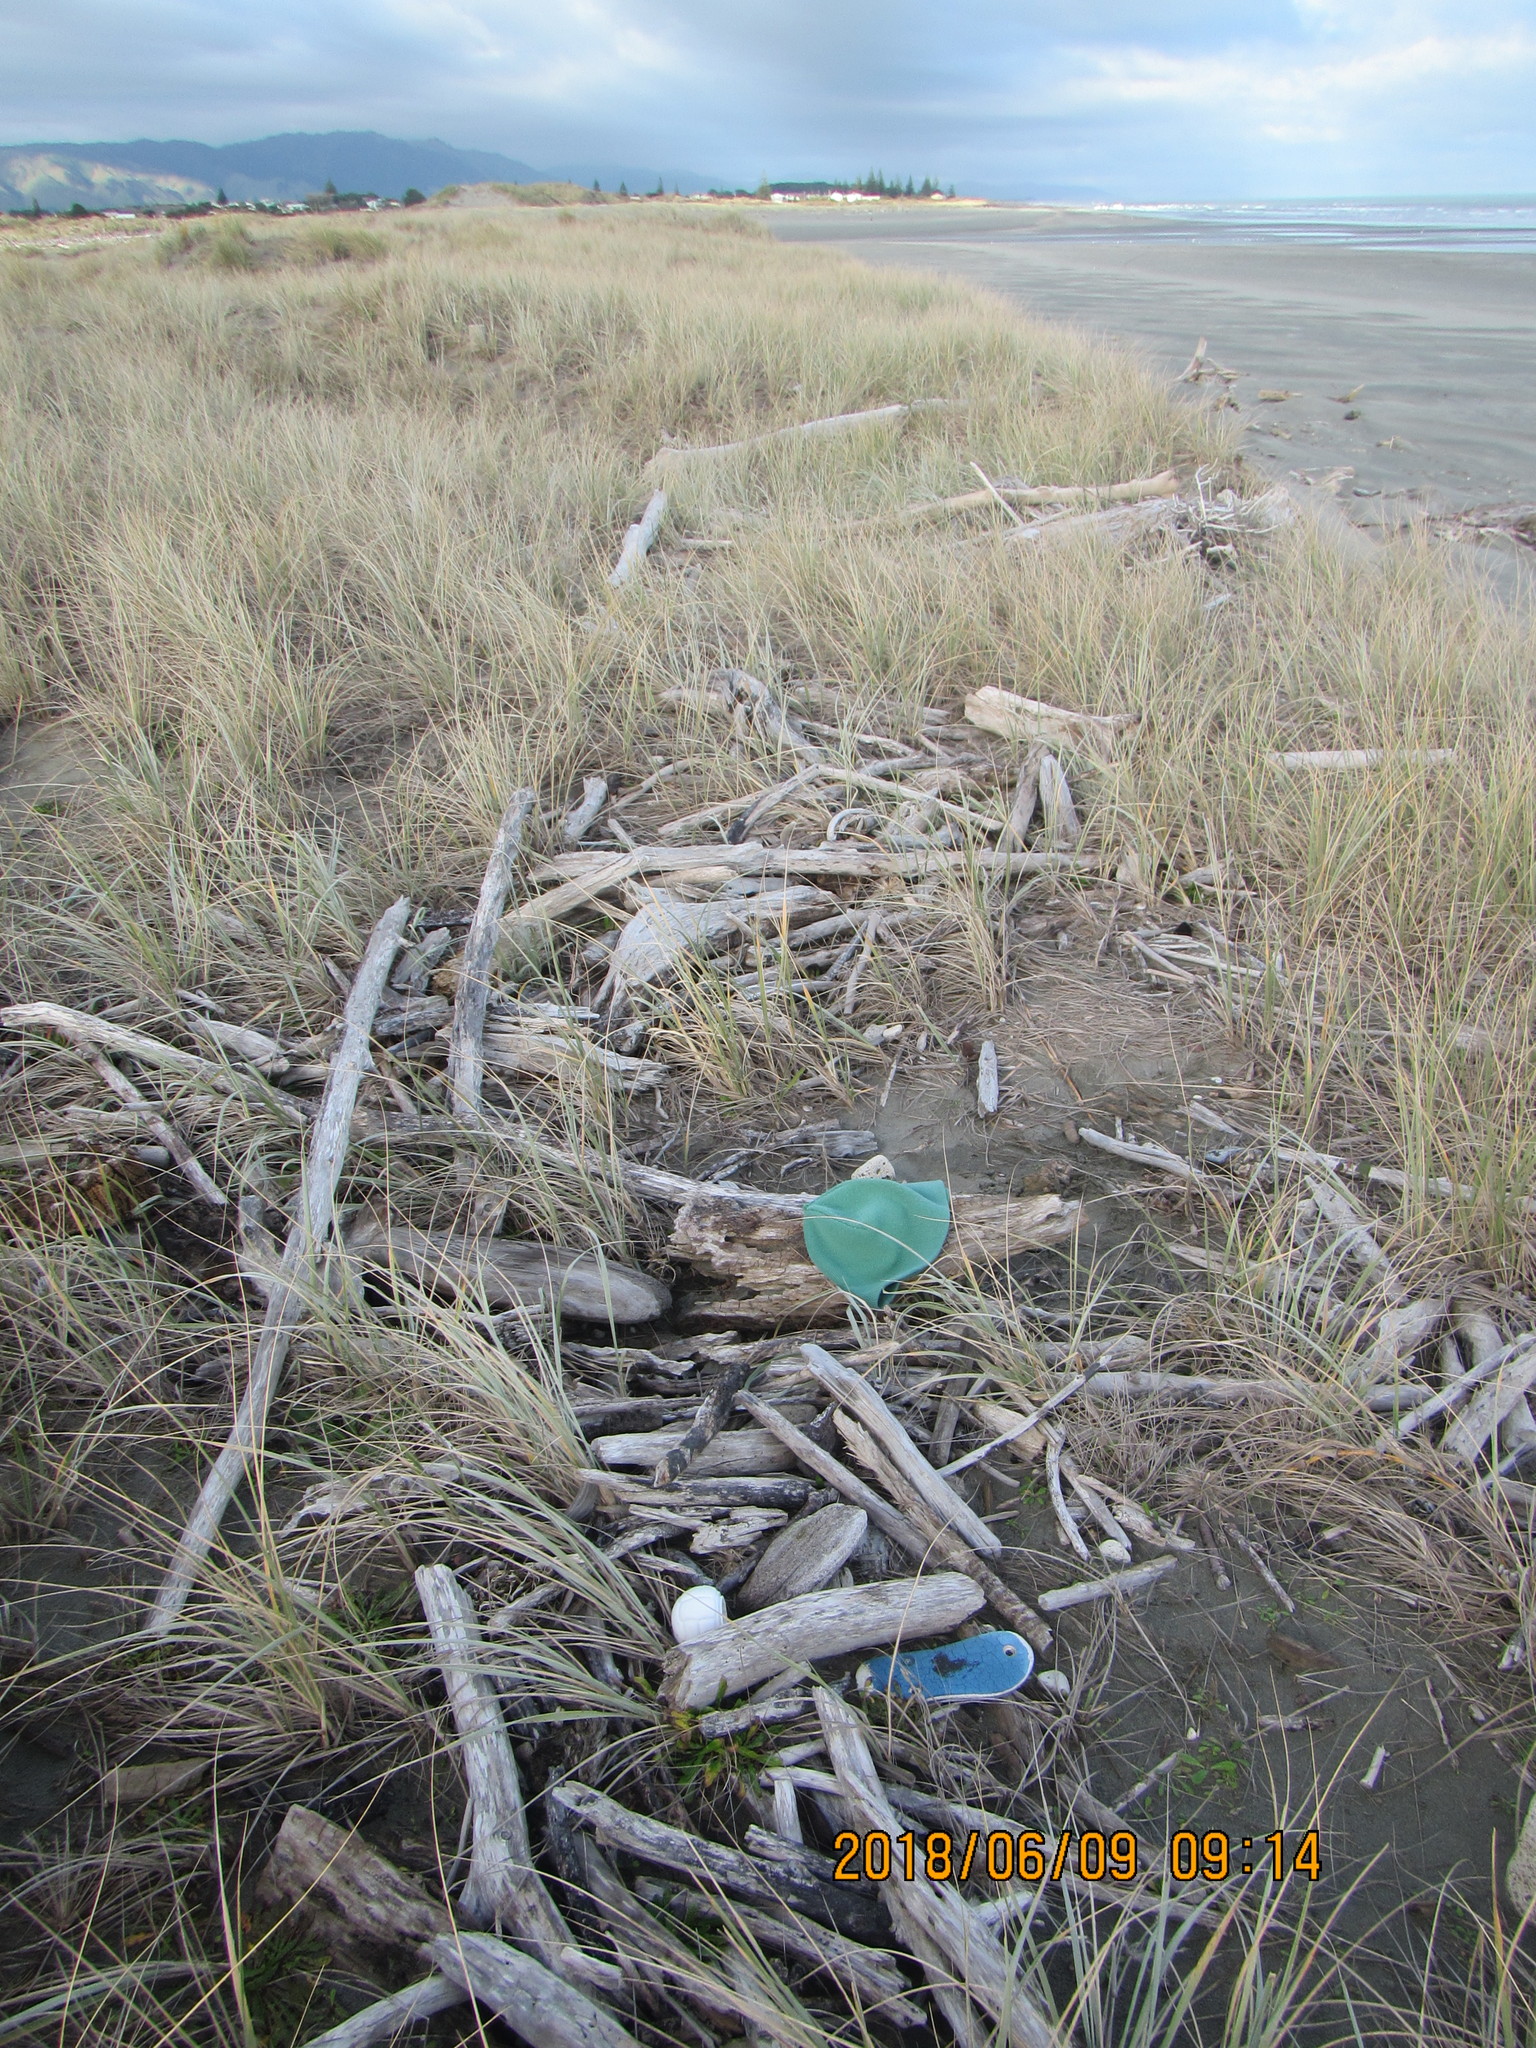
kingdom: Animalia
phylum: Arthropoda
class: Arachnida
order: Araneae
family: Salticidae
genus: Trite
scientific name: Trite auricoma
